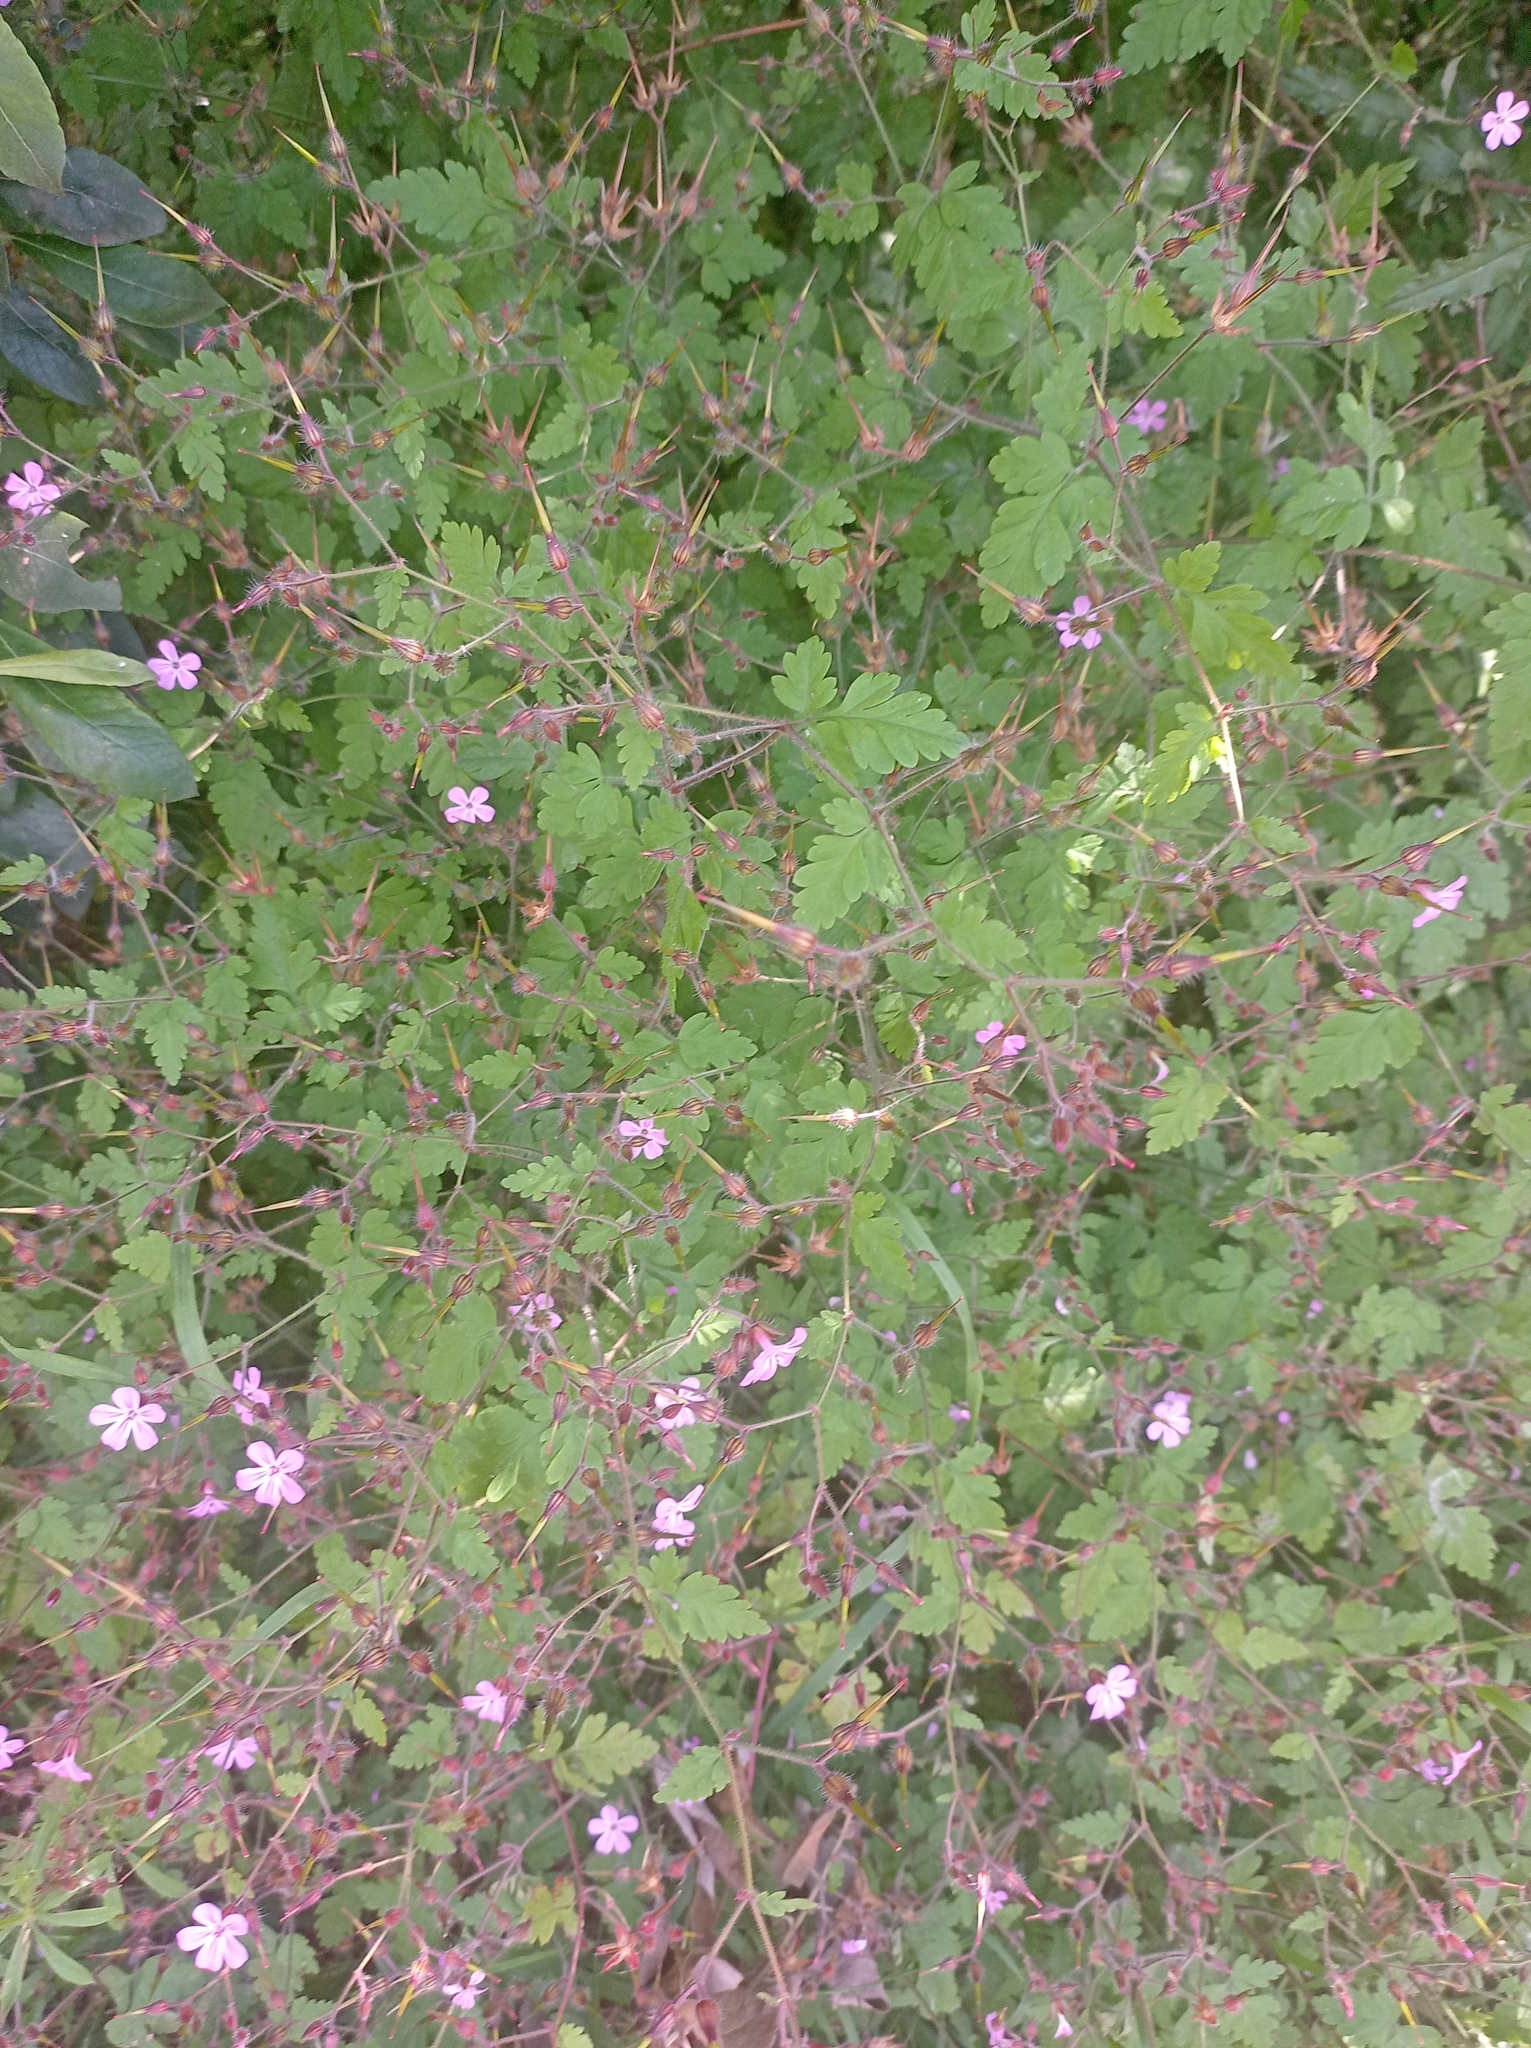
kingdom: Plantae
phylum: Tracheophyta
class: Magnoliopsida
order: Geraniales
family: Geraniaceae
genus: Geranium
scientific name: Geranium robertianum
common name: Herb-robert
